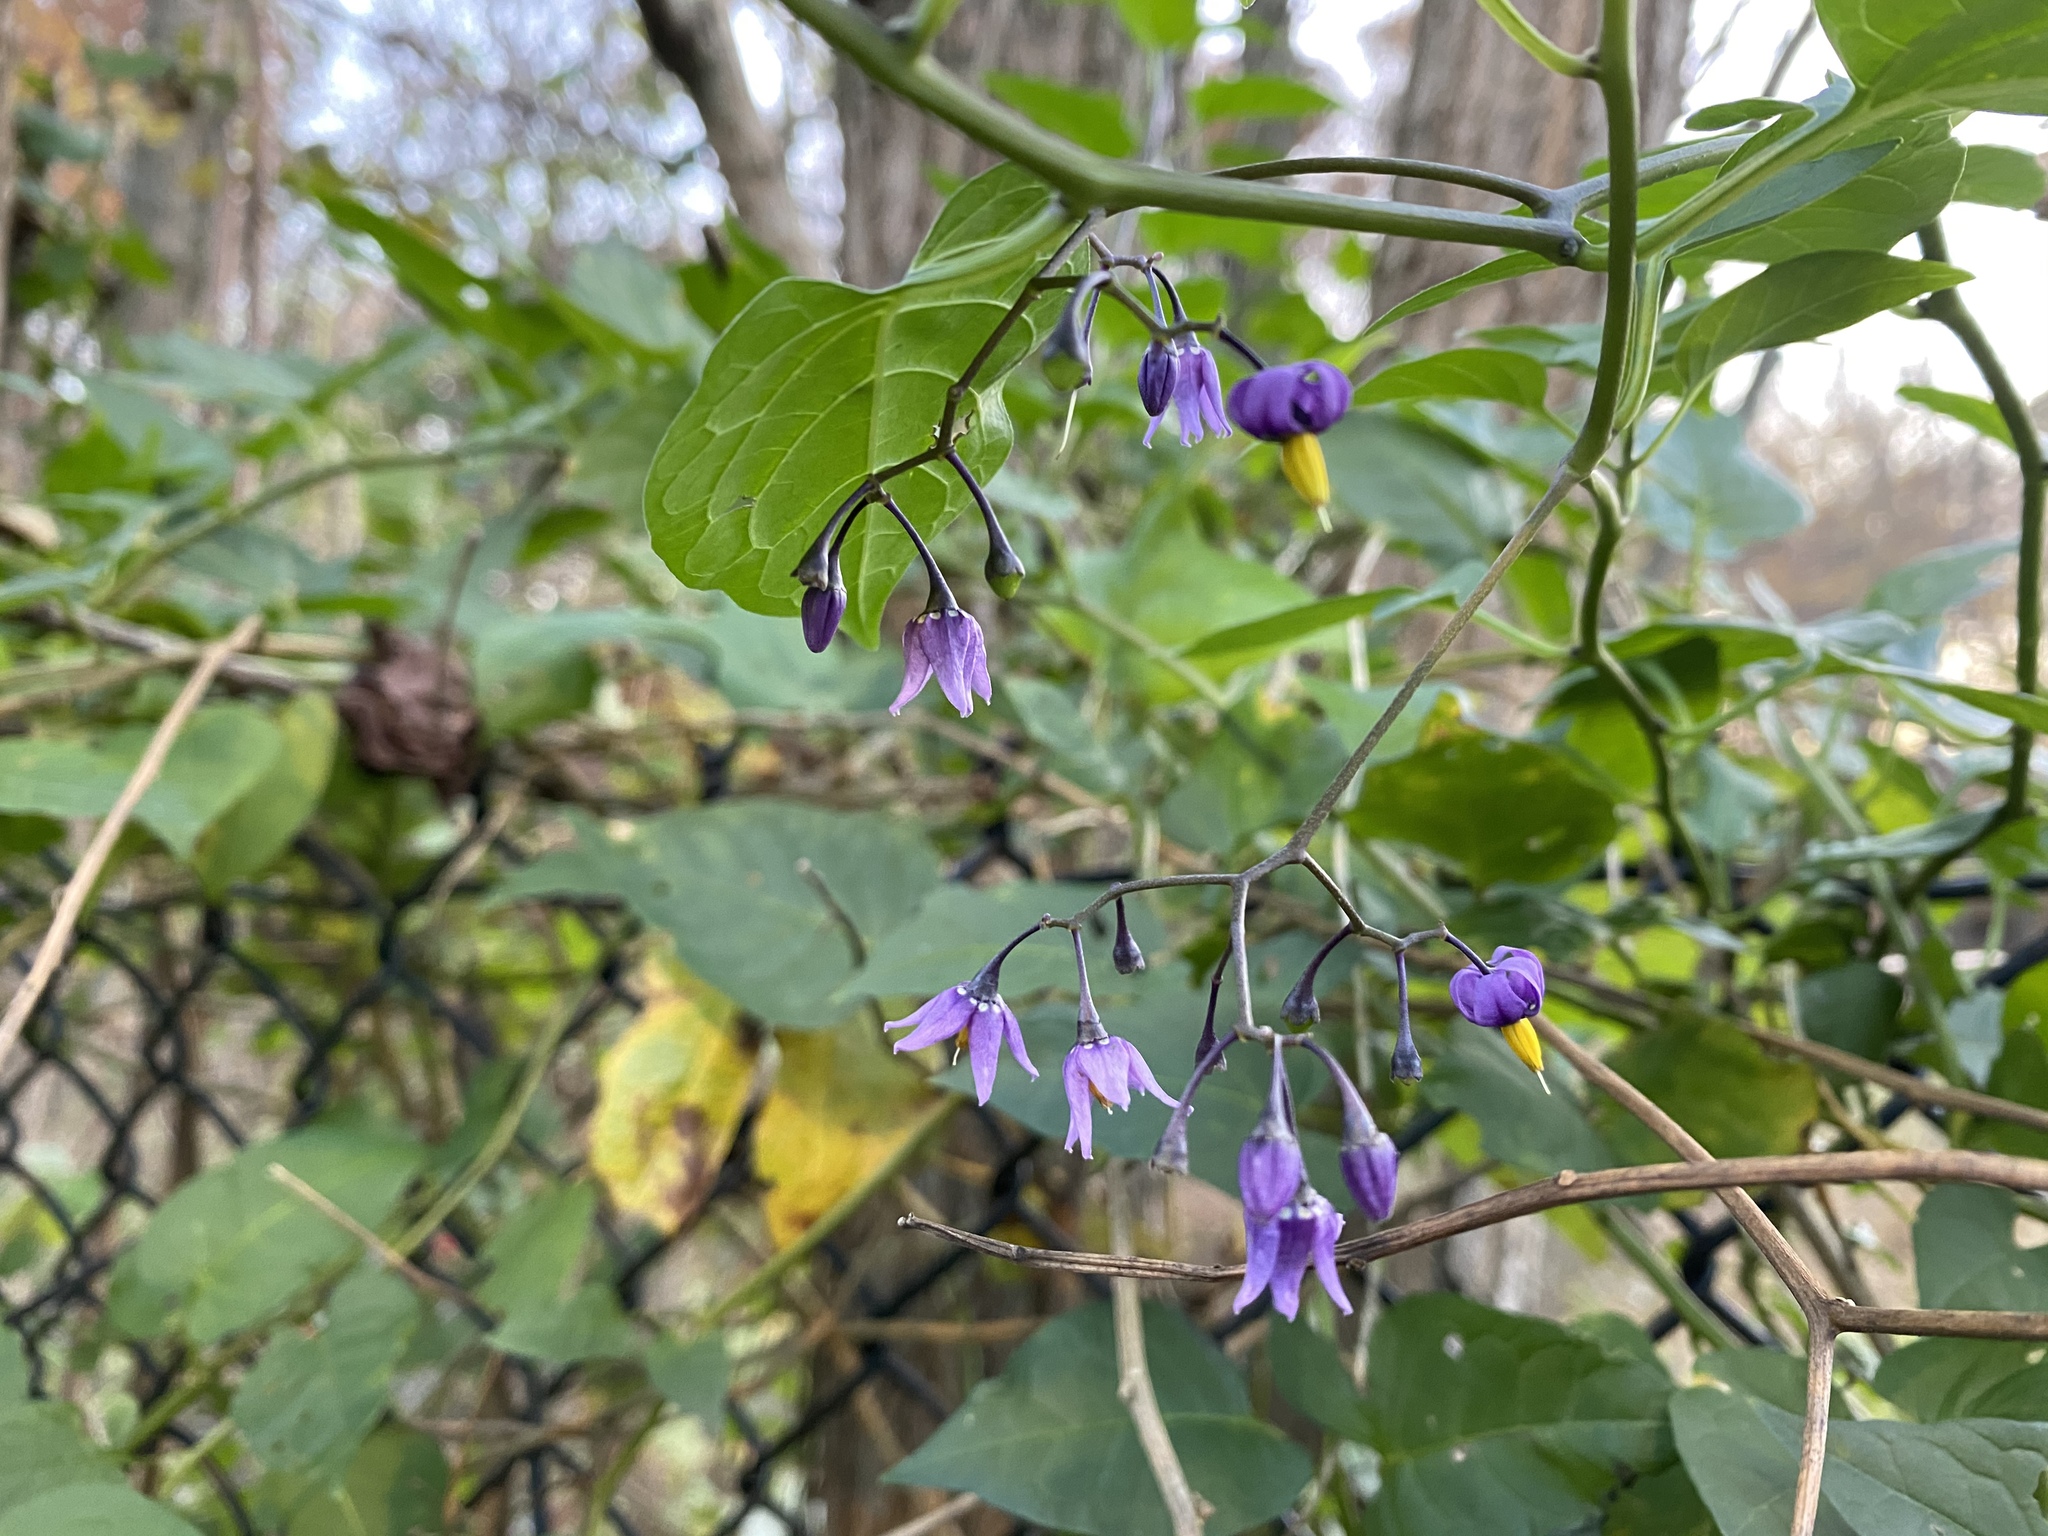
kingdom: Plantae
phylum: Tracheophyta
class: Magnoliopsida
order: Solanales
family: Solanaceae
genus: Solanum
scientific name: Solanum dulcamara
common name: Climbing nightshade
